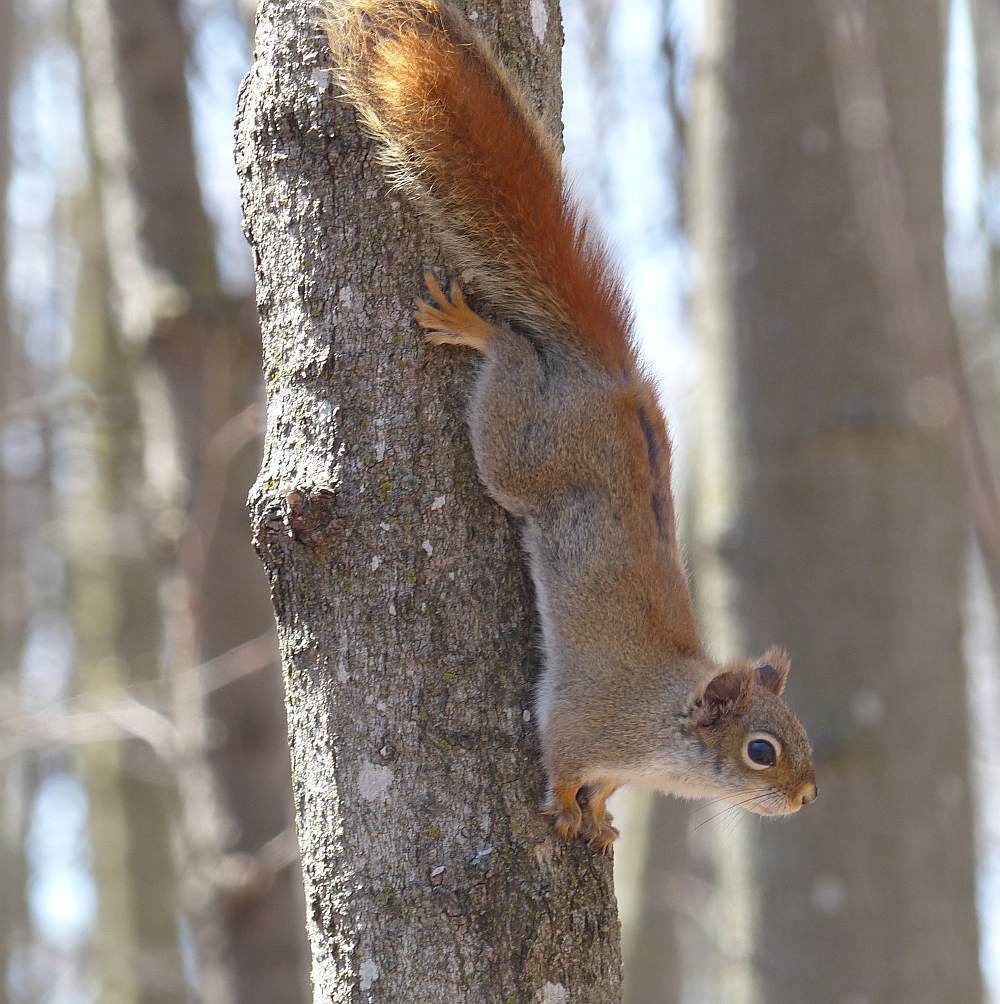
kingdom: Animalia
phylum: Chordata
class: Mammalia
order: Rodentia
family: Sciuridae
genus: Tamiasciurus
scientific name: Tamiasciurus hudsonicus
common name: Red squirrel
